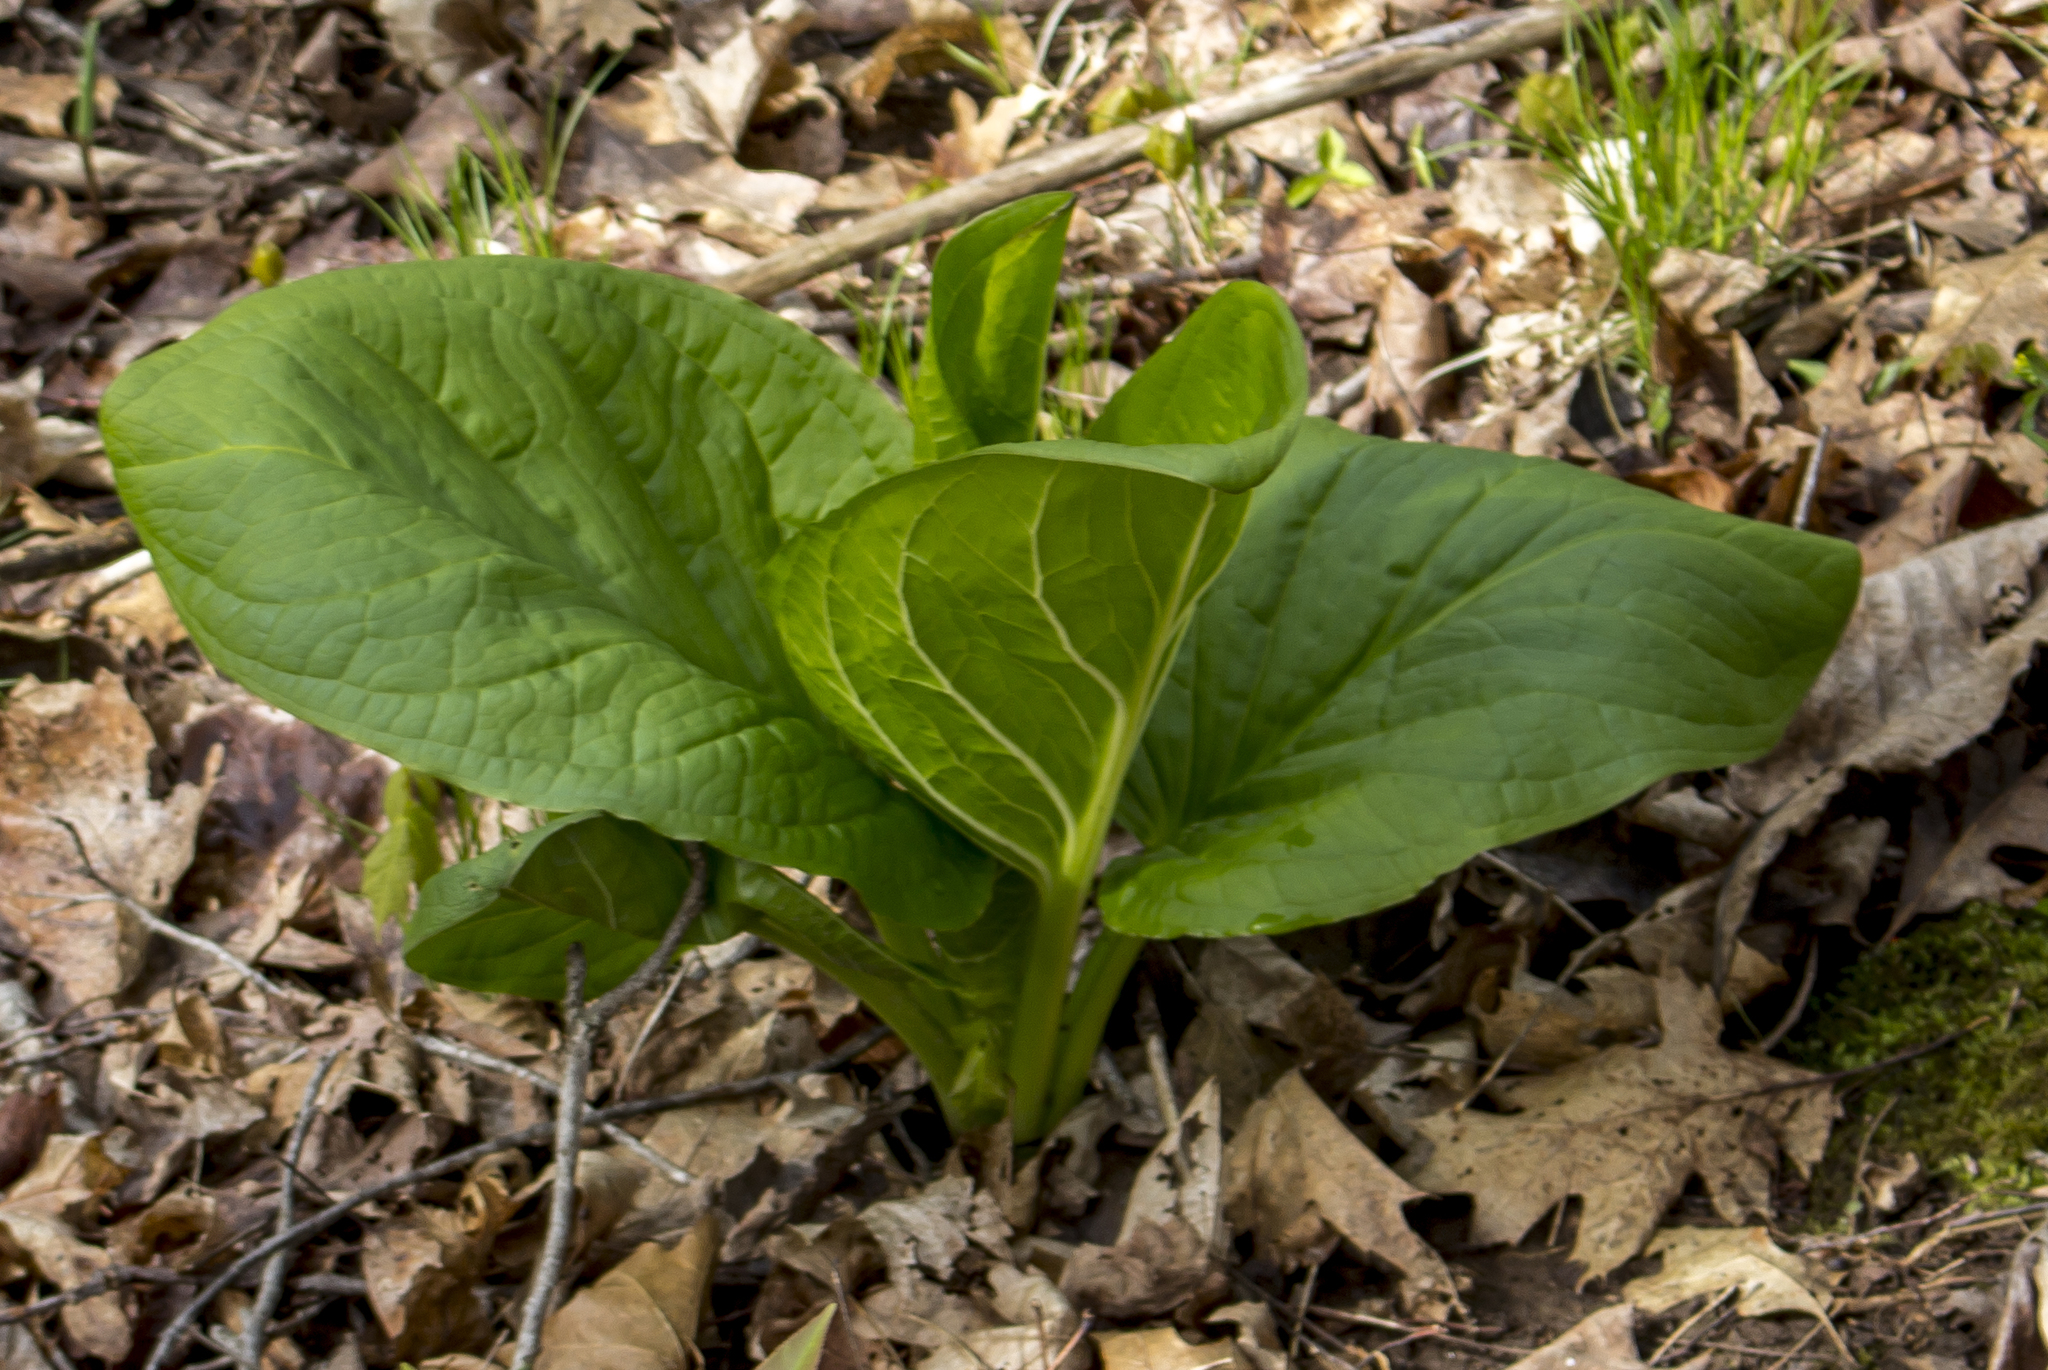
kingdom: Plantae
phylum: Tracheophyta
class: Liliopsida
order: Alismatales
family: Araceae
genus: Symplocarpus
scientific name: Symplocarpus foetidus
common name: Eastern skunk cabbage
